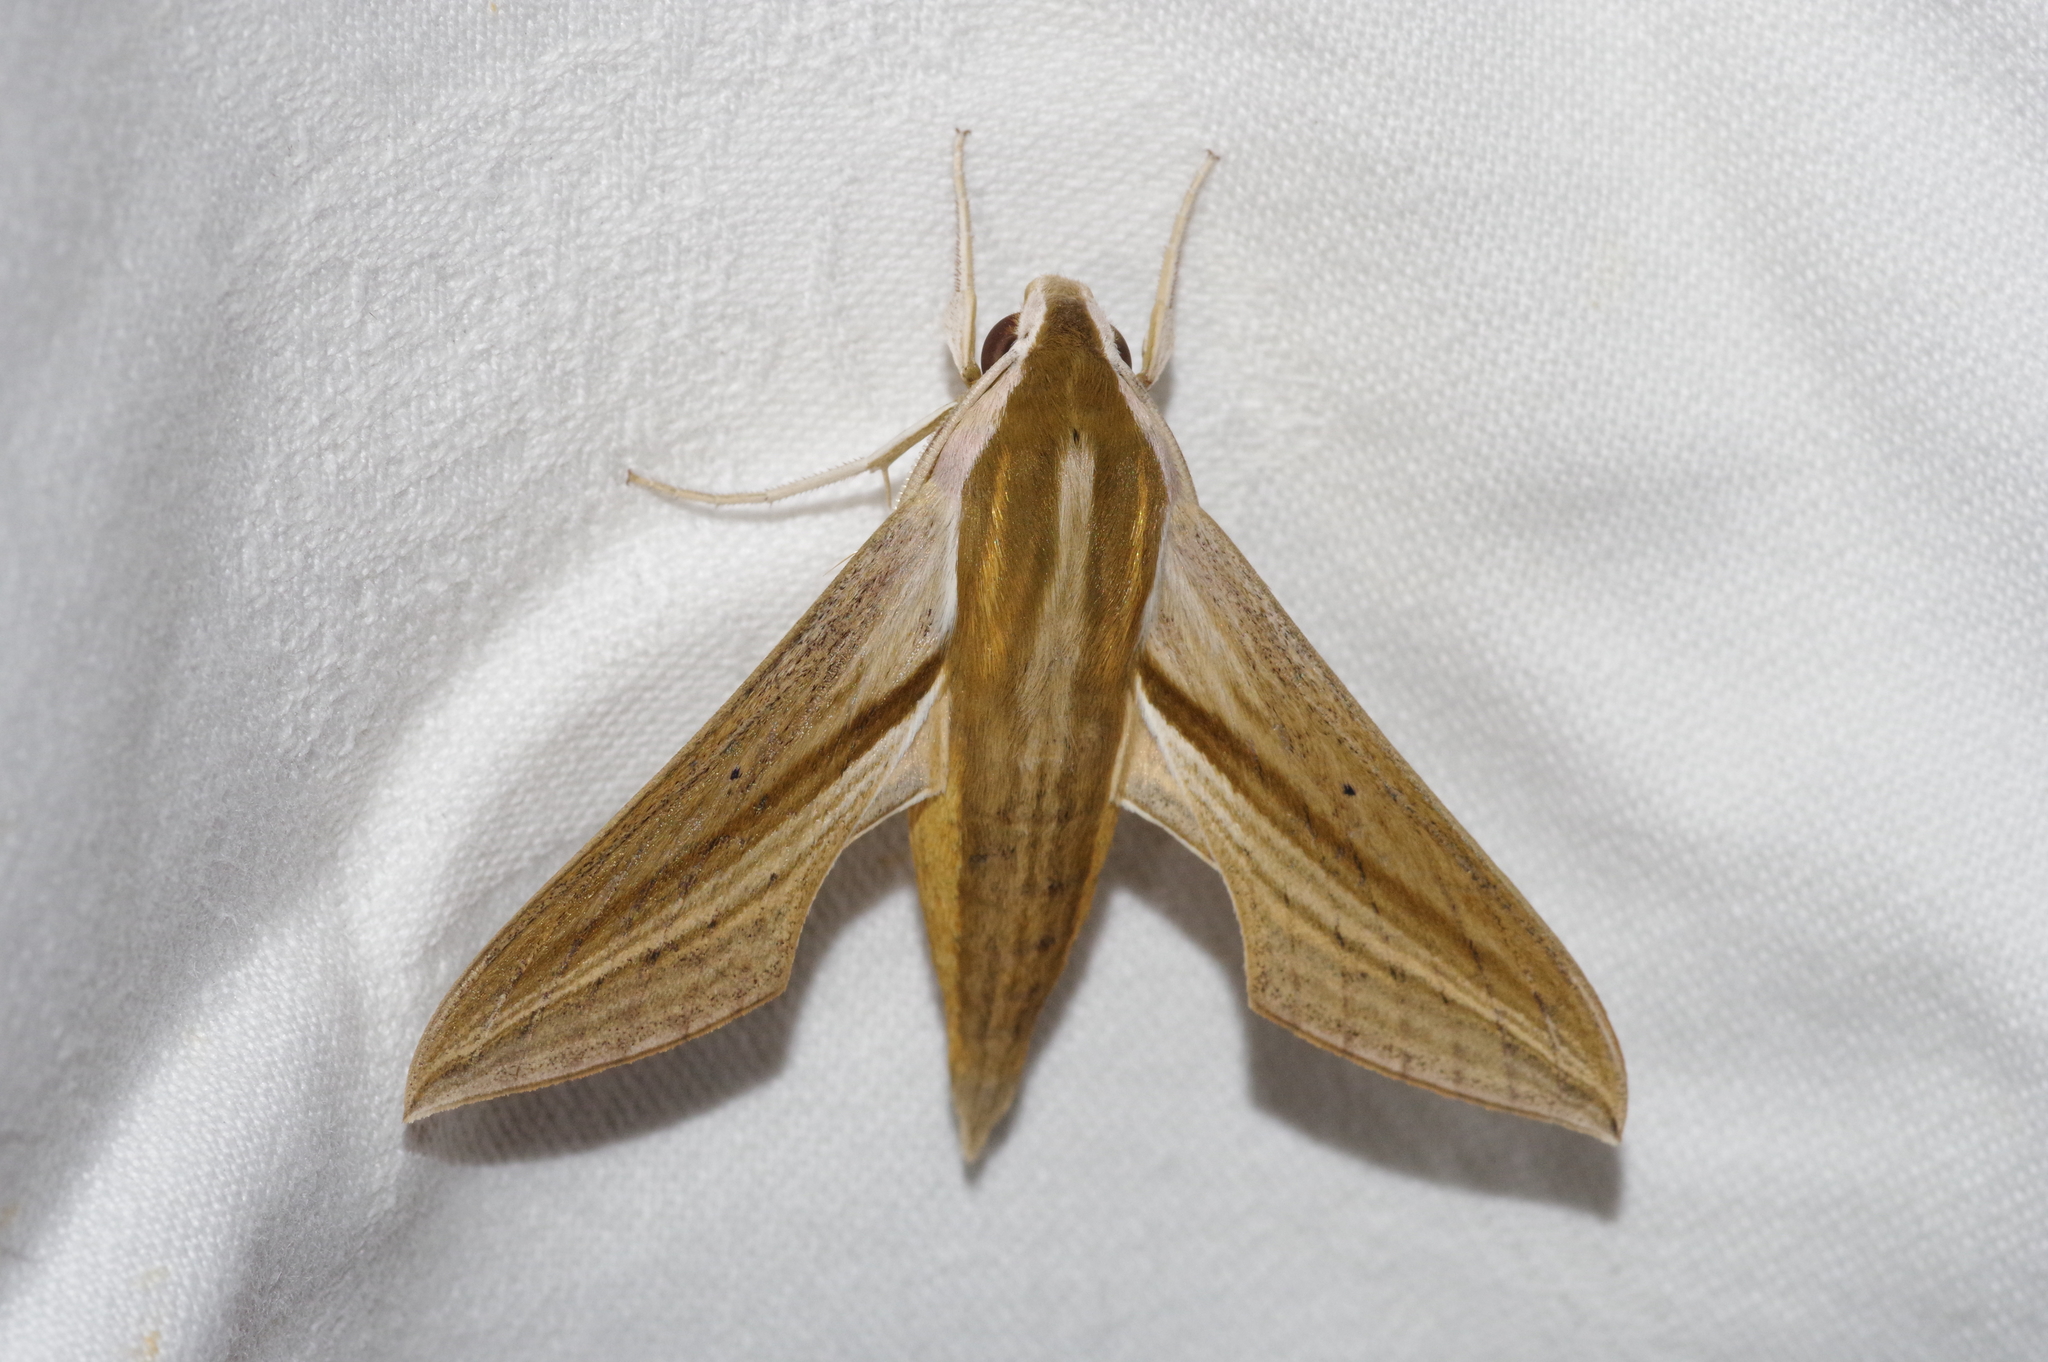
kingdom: Animalia
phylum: Arthropoda
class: Insecta
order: Lepidoptera
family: Sphingidae
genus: Theretra
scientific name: Theretra japonica
